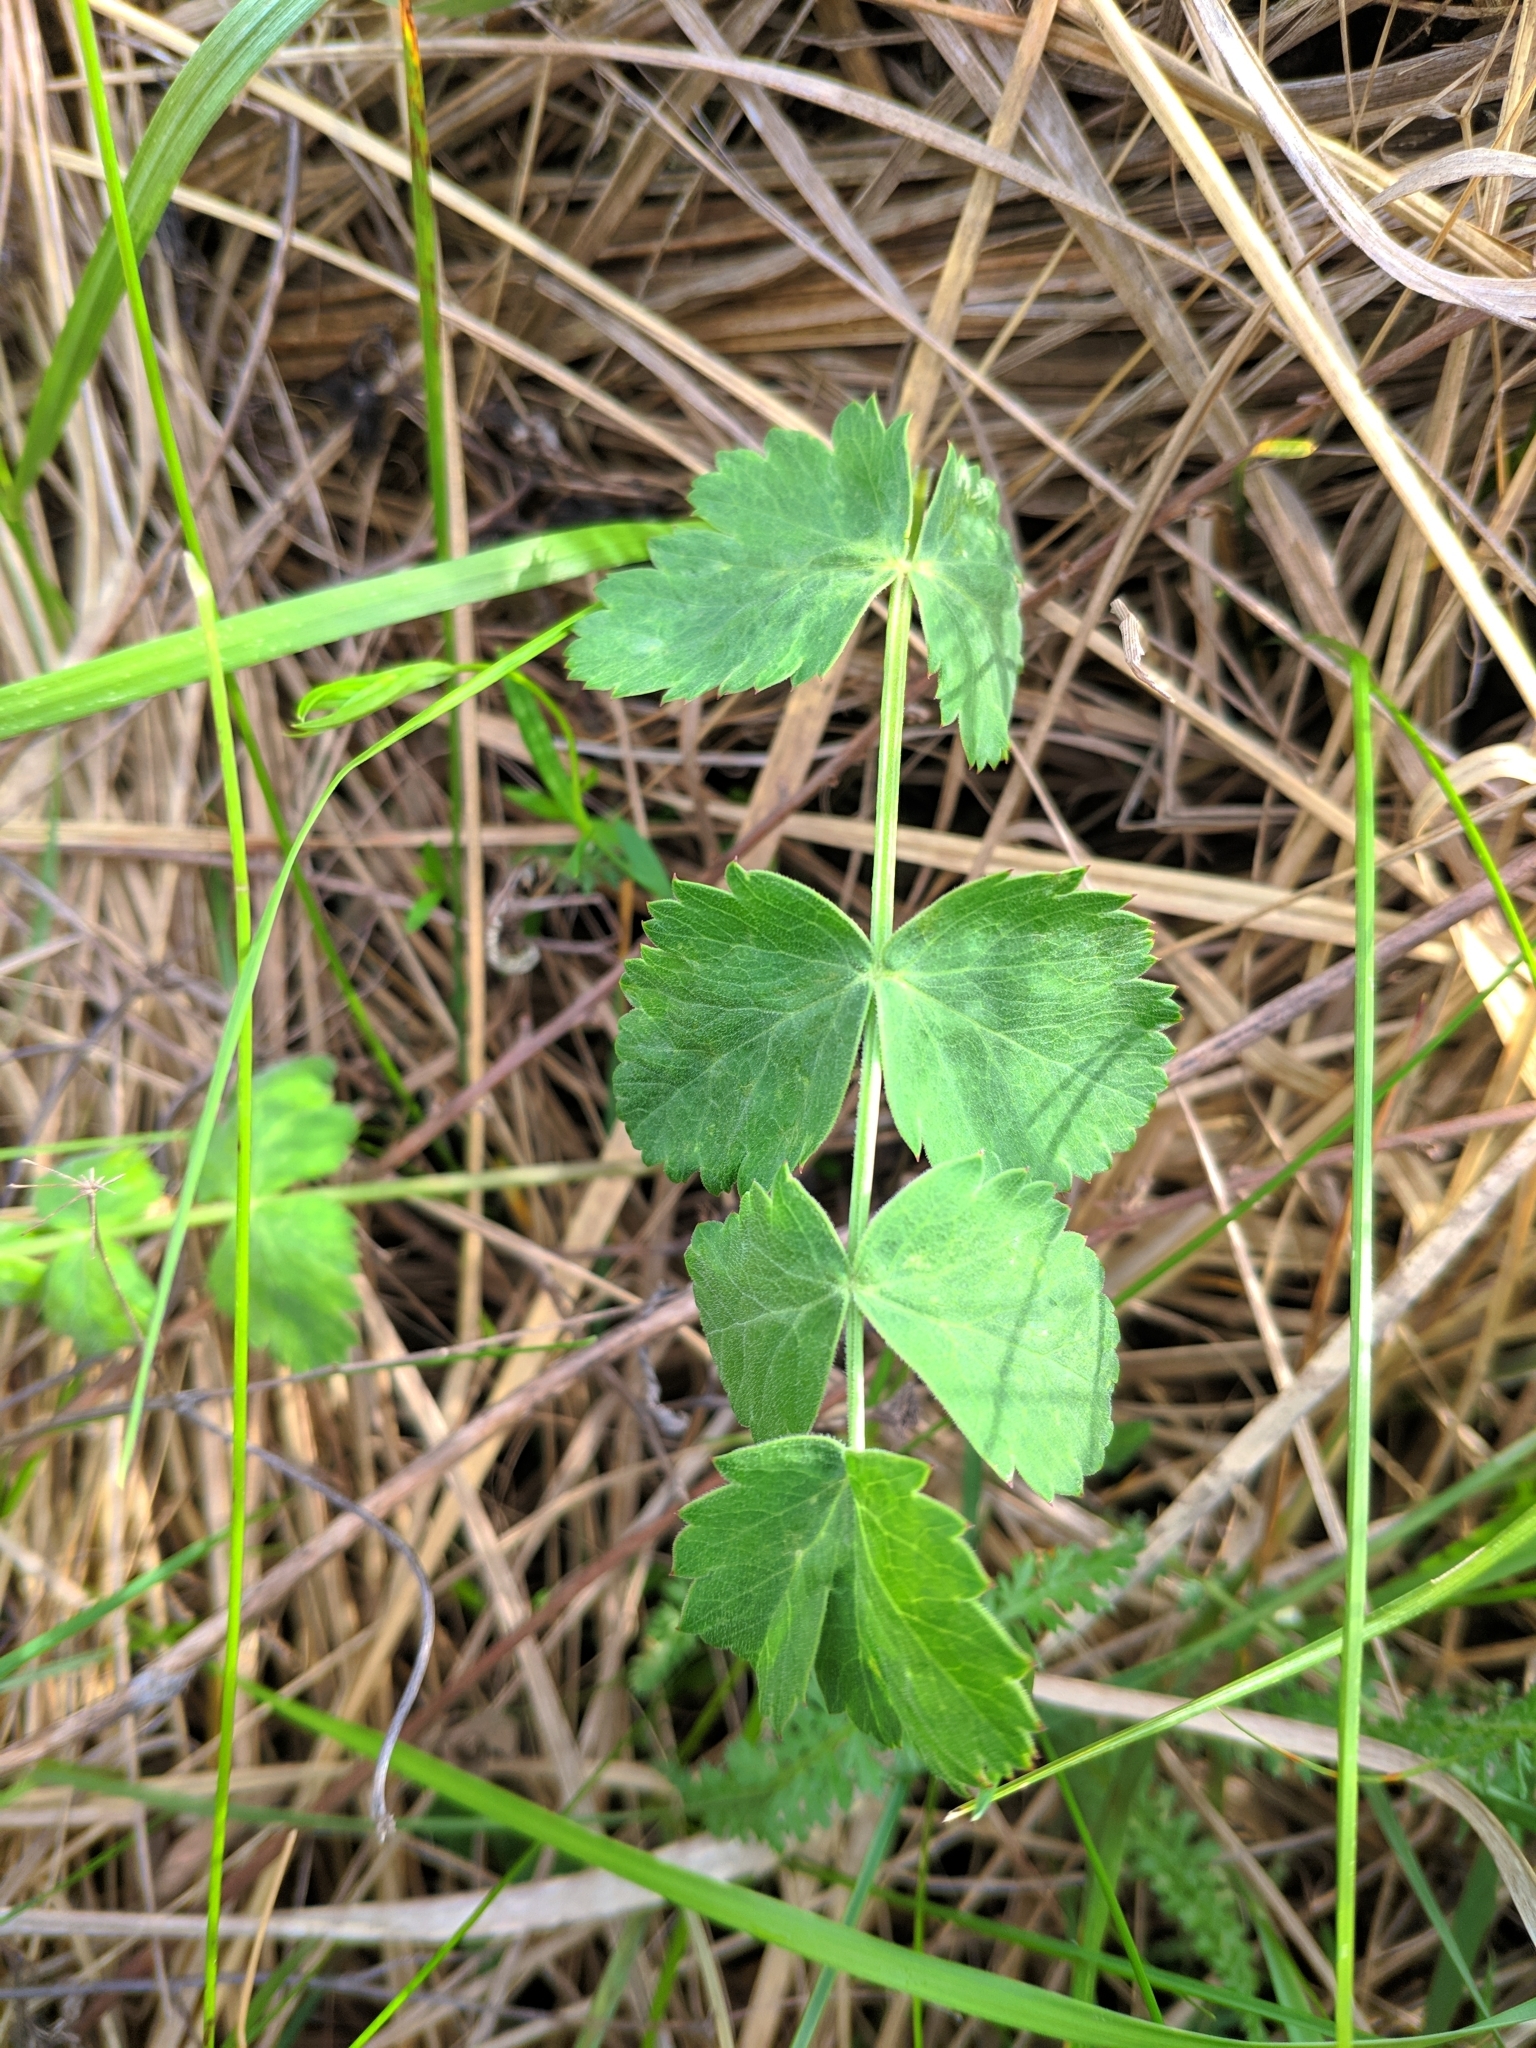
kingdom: Plantae
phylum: Tracheophyta
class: Magnoliopsida
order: Apiales
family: Apiaceae
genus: Pimpinella
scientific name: Pimpinella saxifraga
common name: Burnet-saxifrage
